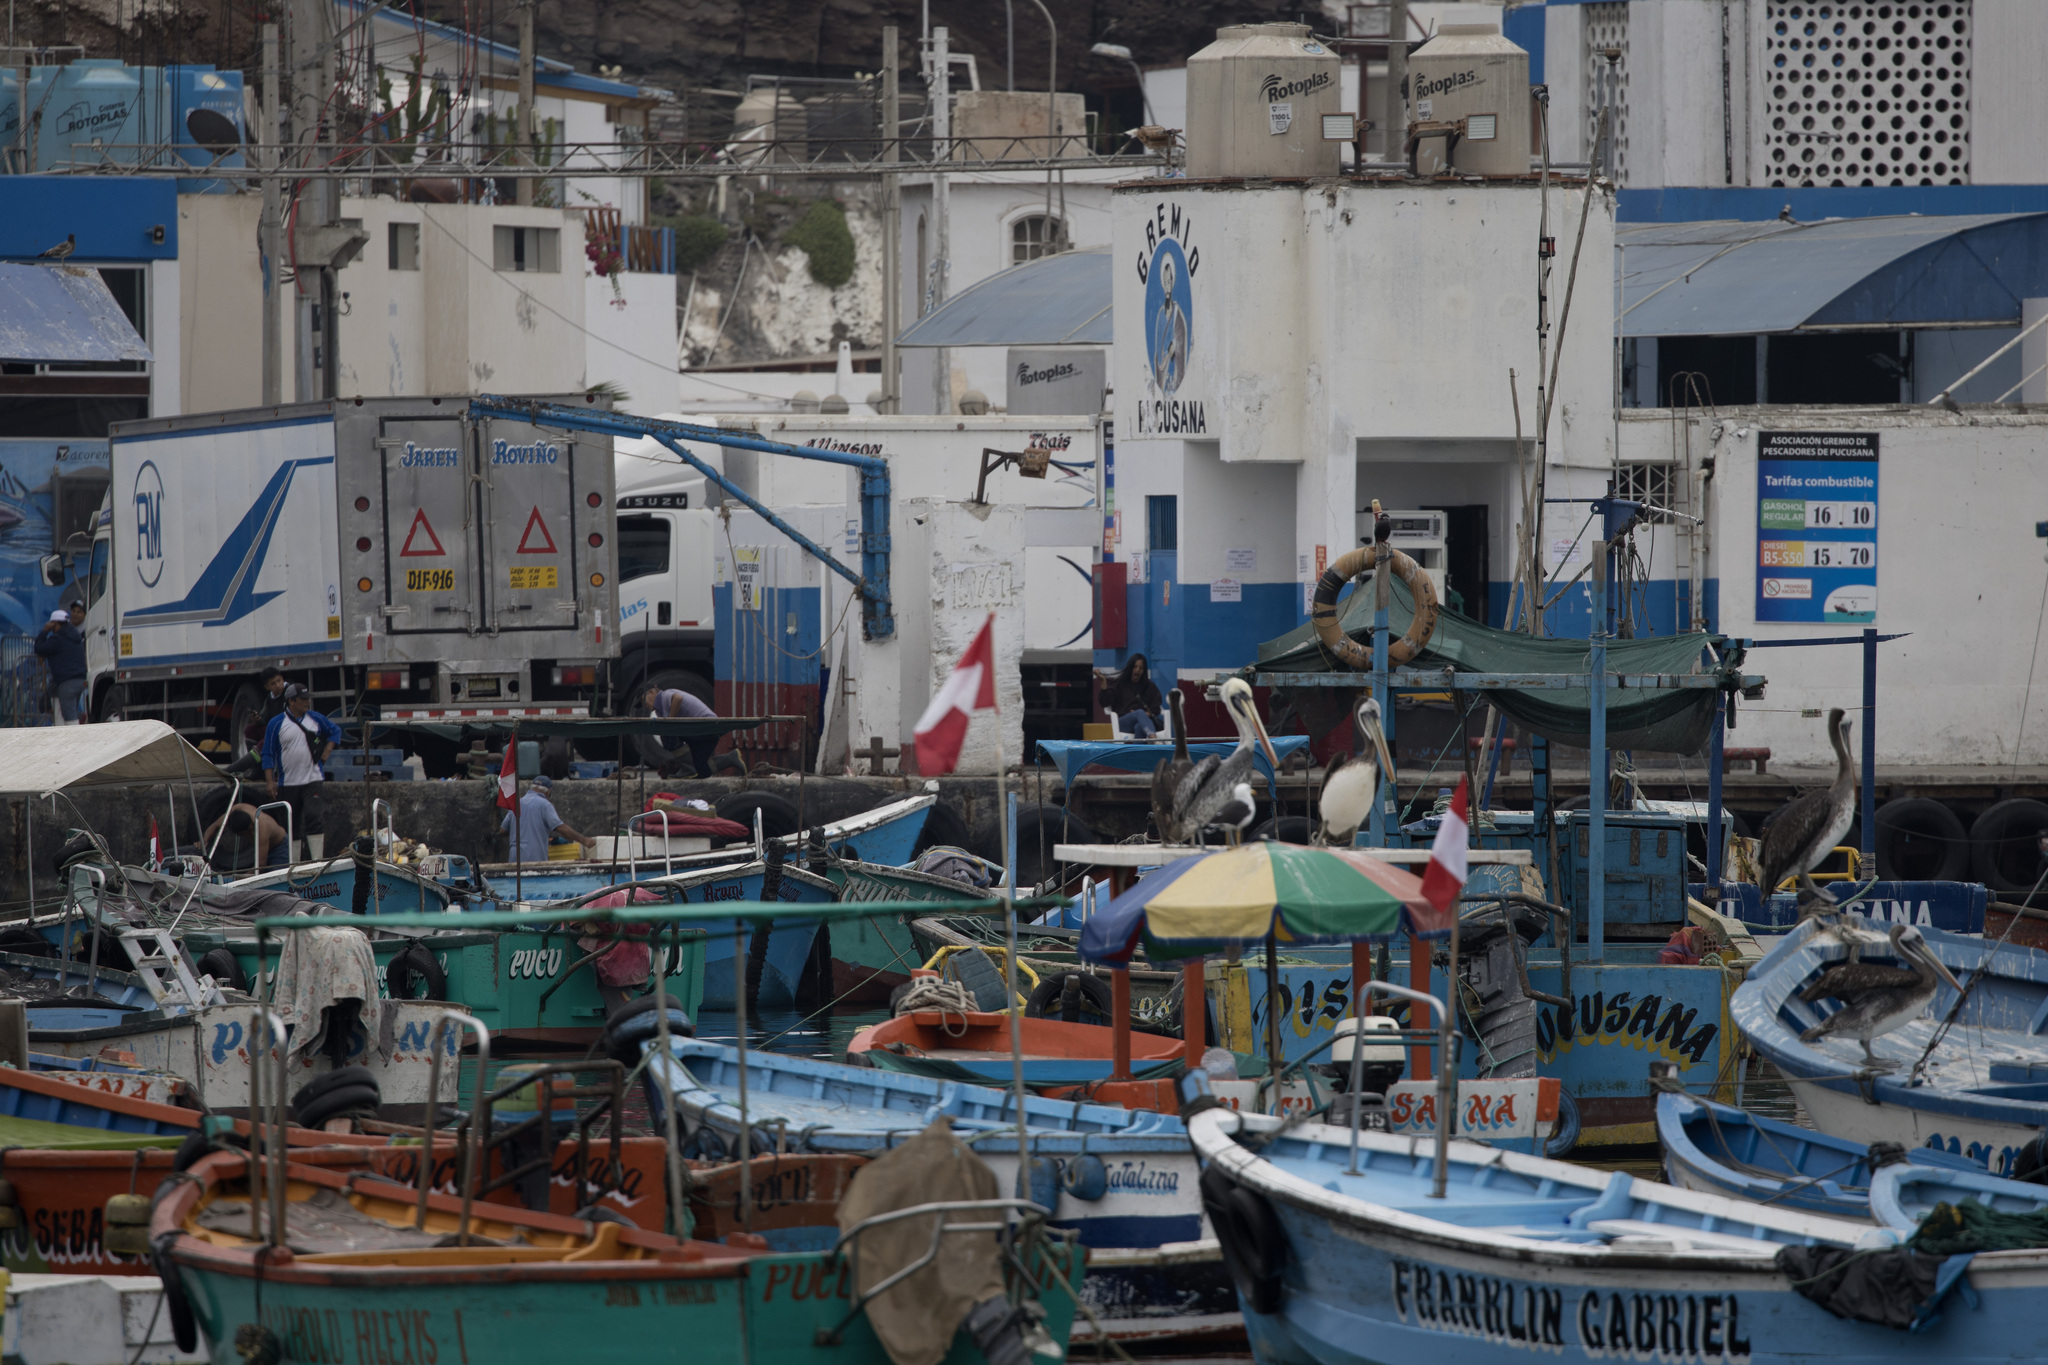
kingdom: Animalia
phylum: Chordata
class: Aves
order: Pelecaniformes
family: Pelecanidae
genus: Pelecanus
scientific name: Pelecanus thagus
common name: Peruvian pelican
